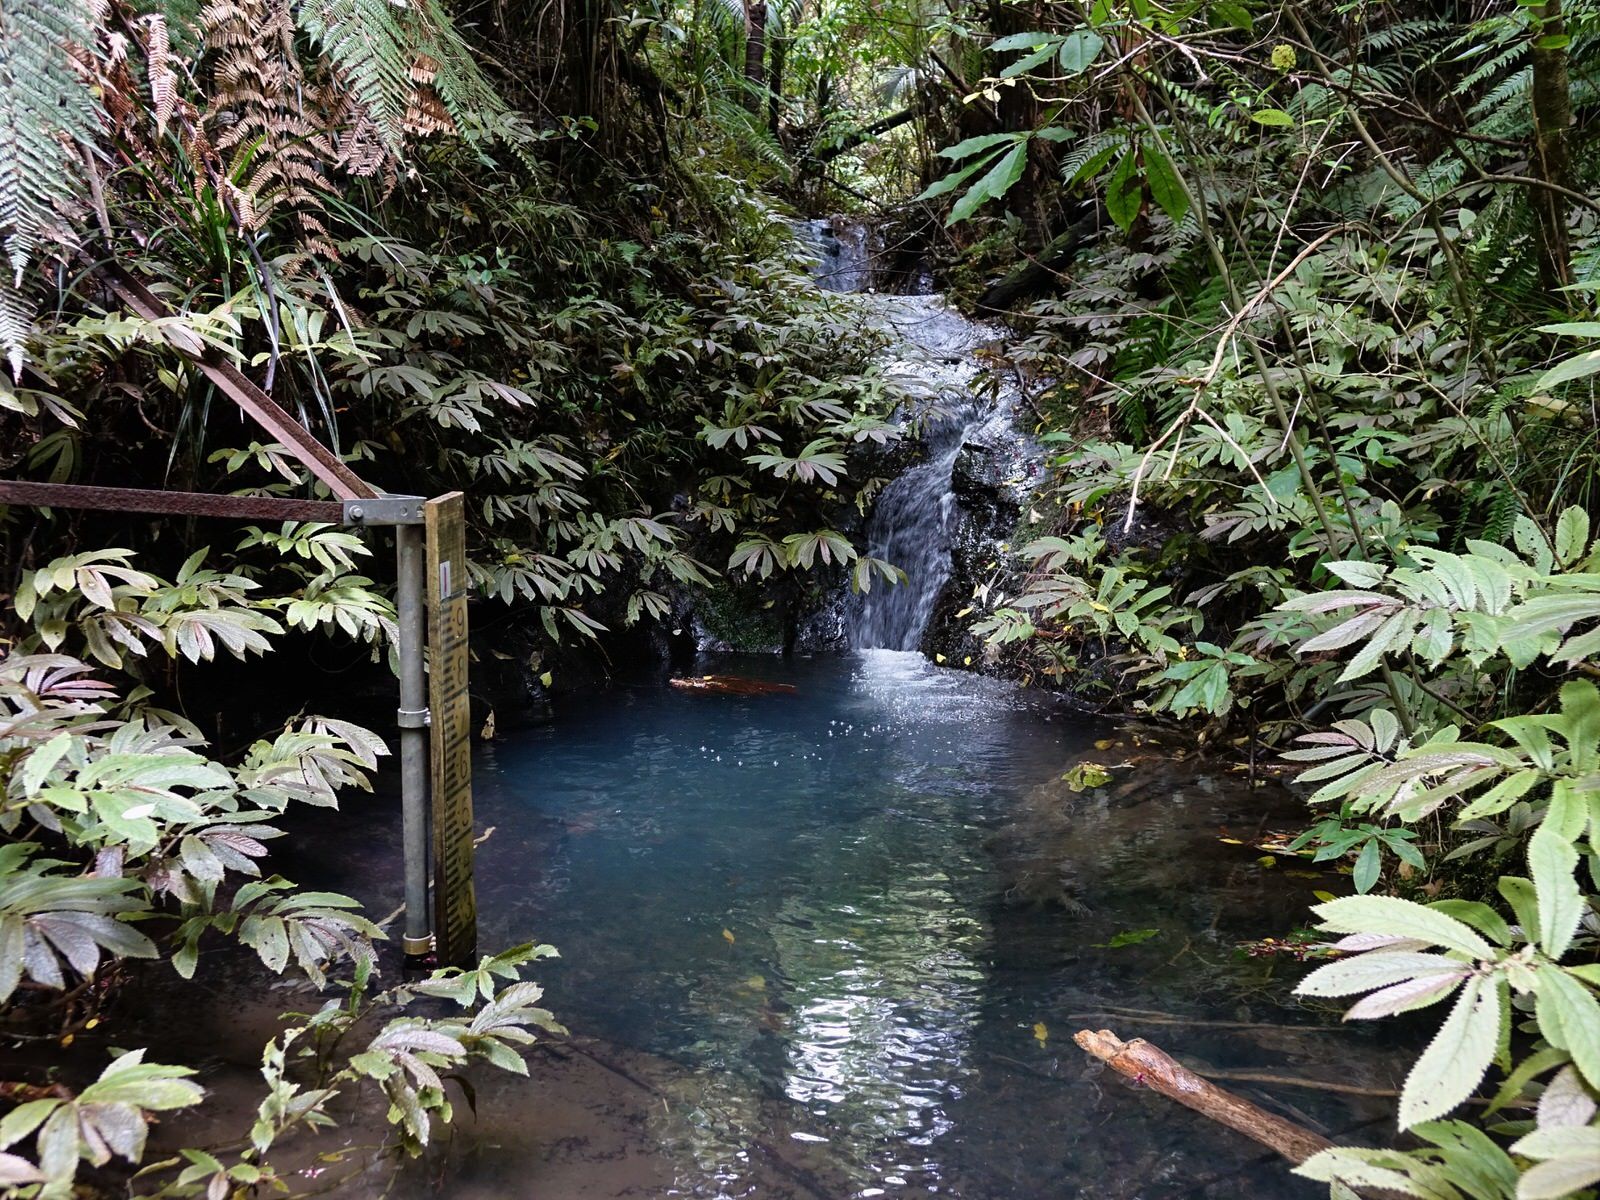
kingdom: Plantae
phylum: Tracheophyta
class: Magnoliopsida
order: Rosales
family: Urticaceae
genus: Elatostema
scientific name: Elatostema rugosum
